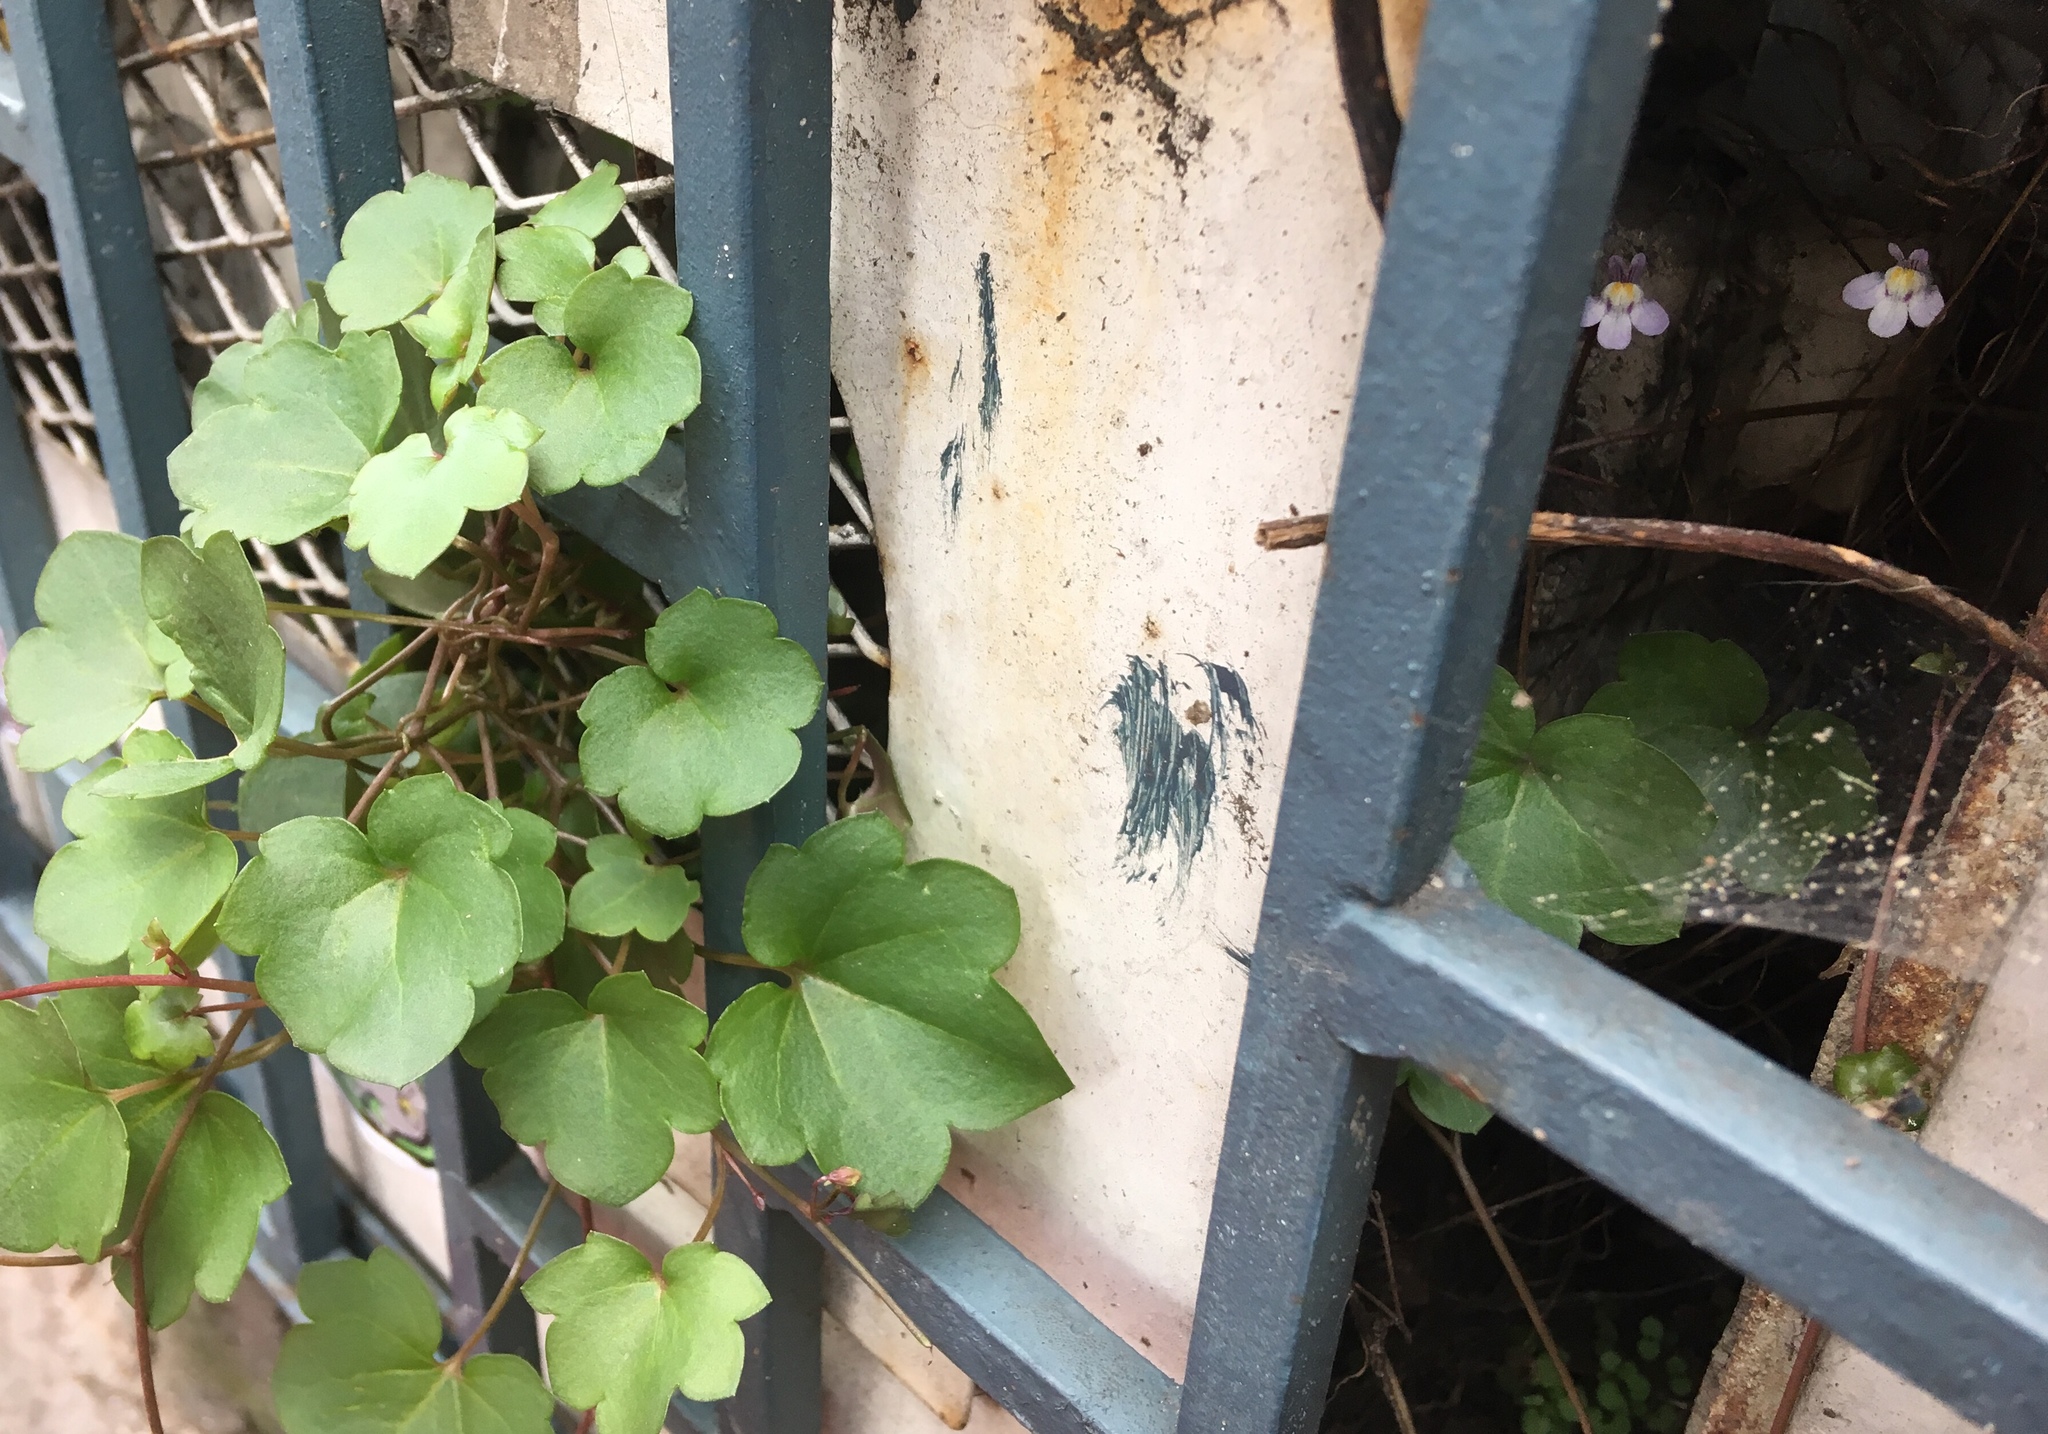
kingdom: Plantae
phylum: Tracheophyta
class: Magnoliopsida
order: Lamiales
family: Plantaginaceae
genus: Cymbalaria
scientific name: Cymbalaria muralis
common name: Ivy-leaved toadflax
